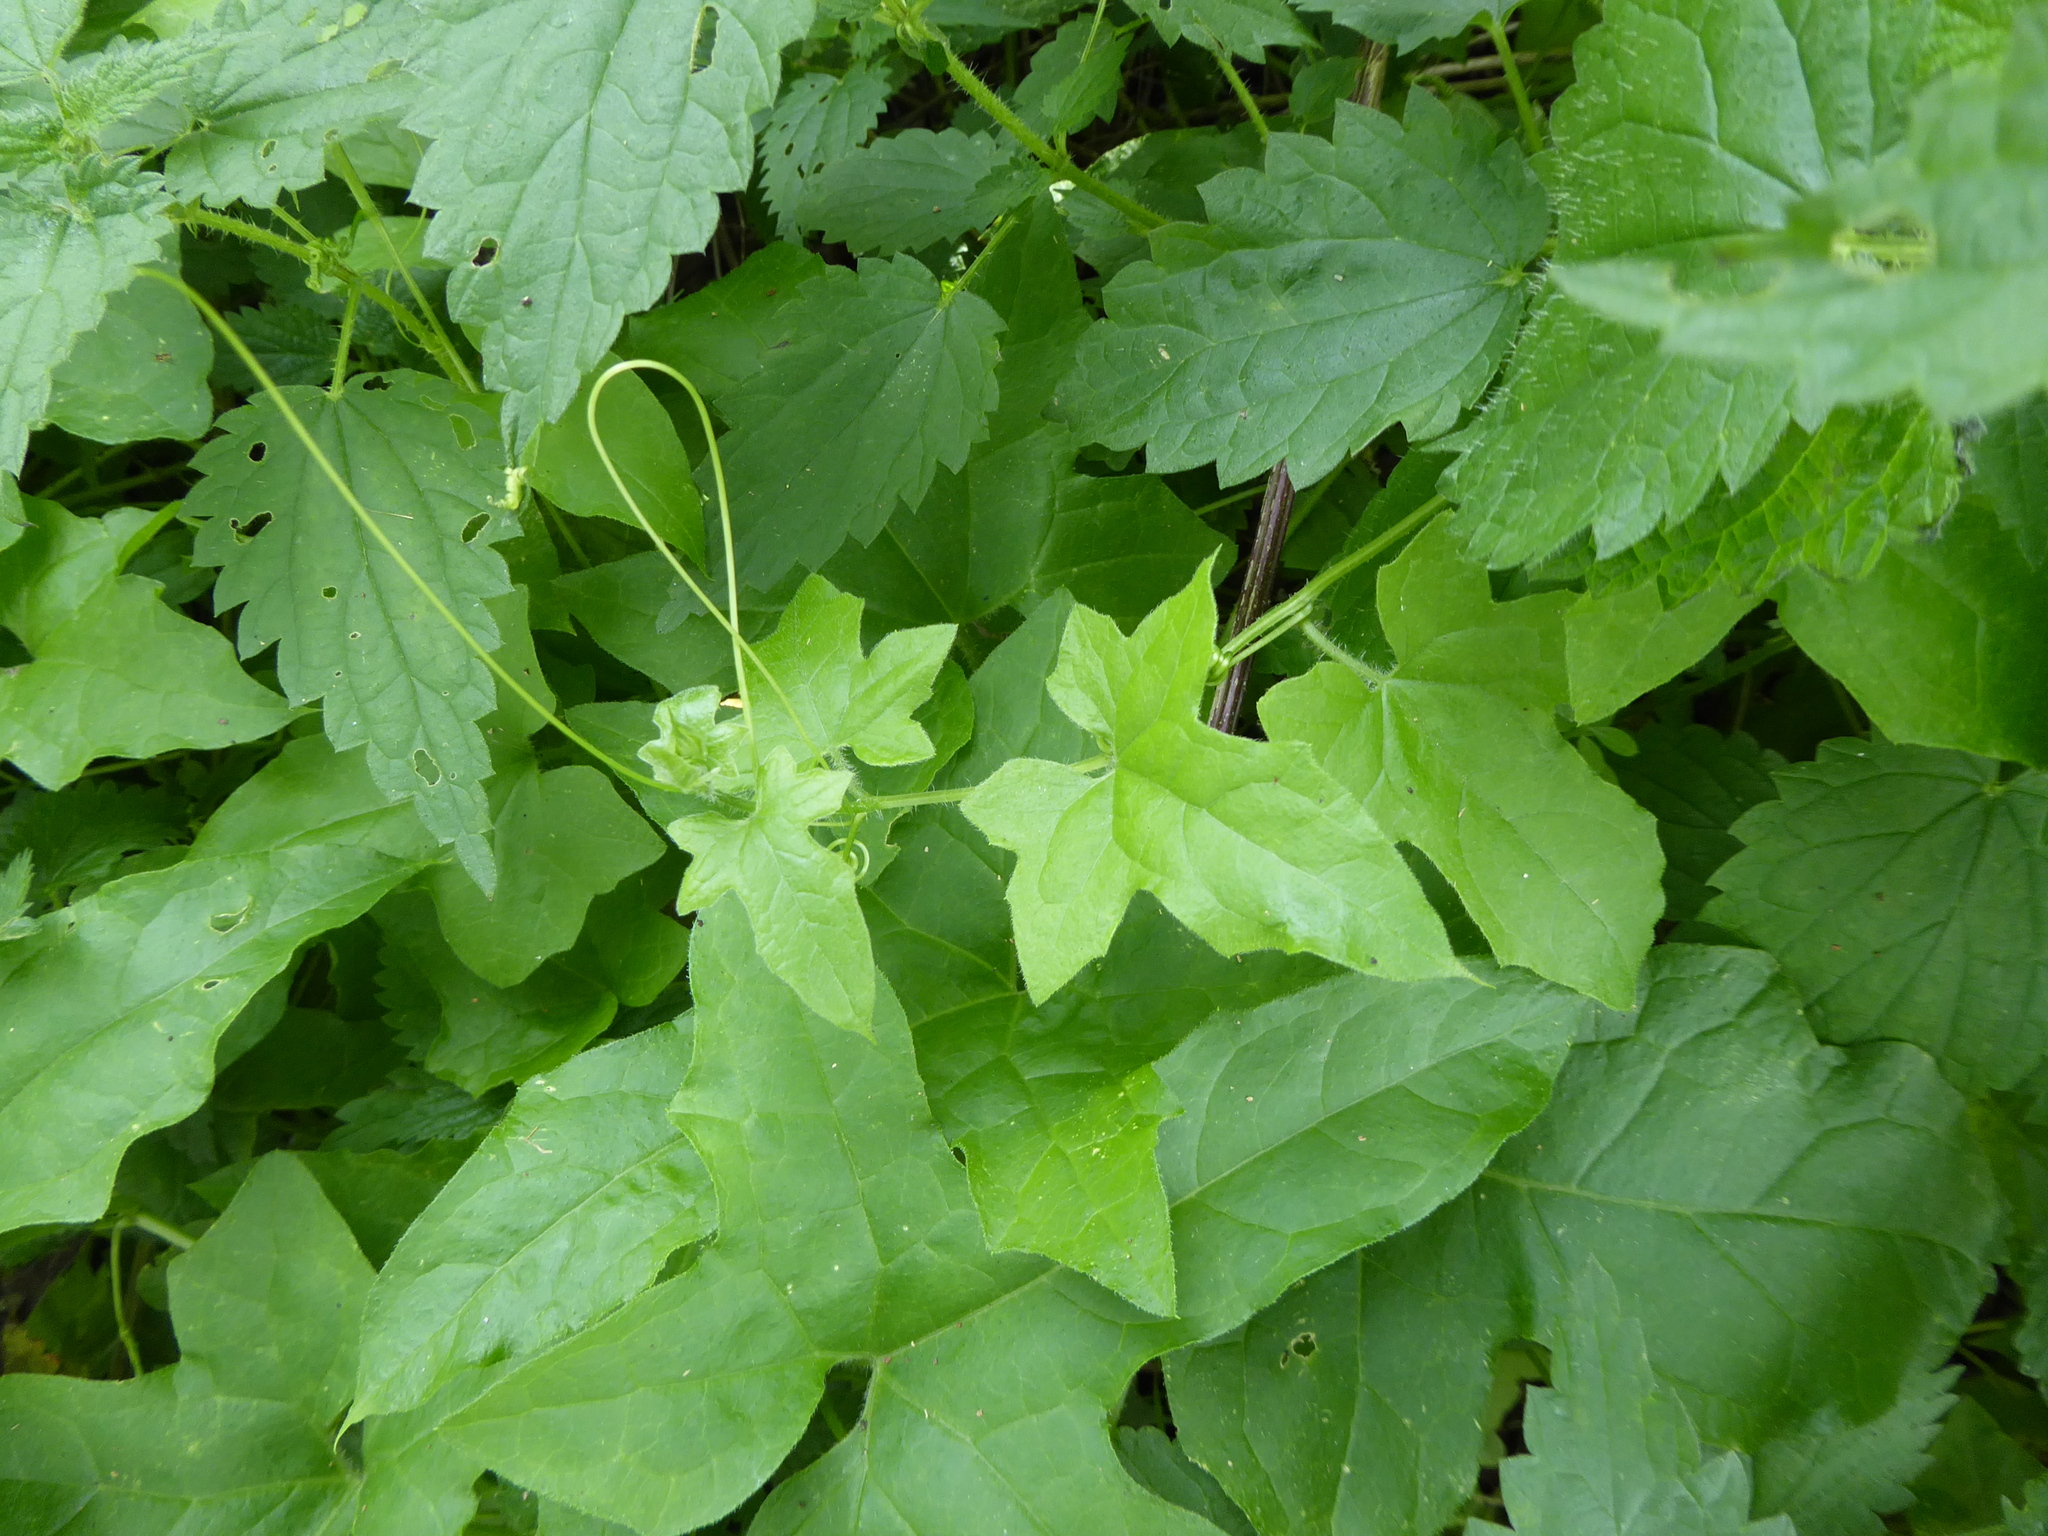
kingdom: Plantae
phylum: Tracheophyta
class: Magnoliopsida
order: Cucurbitales
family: Cucurbitaceae
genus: Bryonia
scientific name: Bryonia cretica
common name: Cretan bryony
